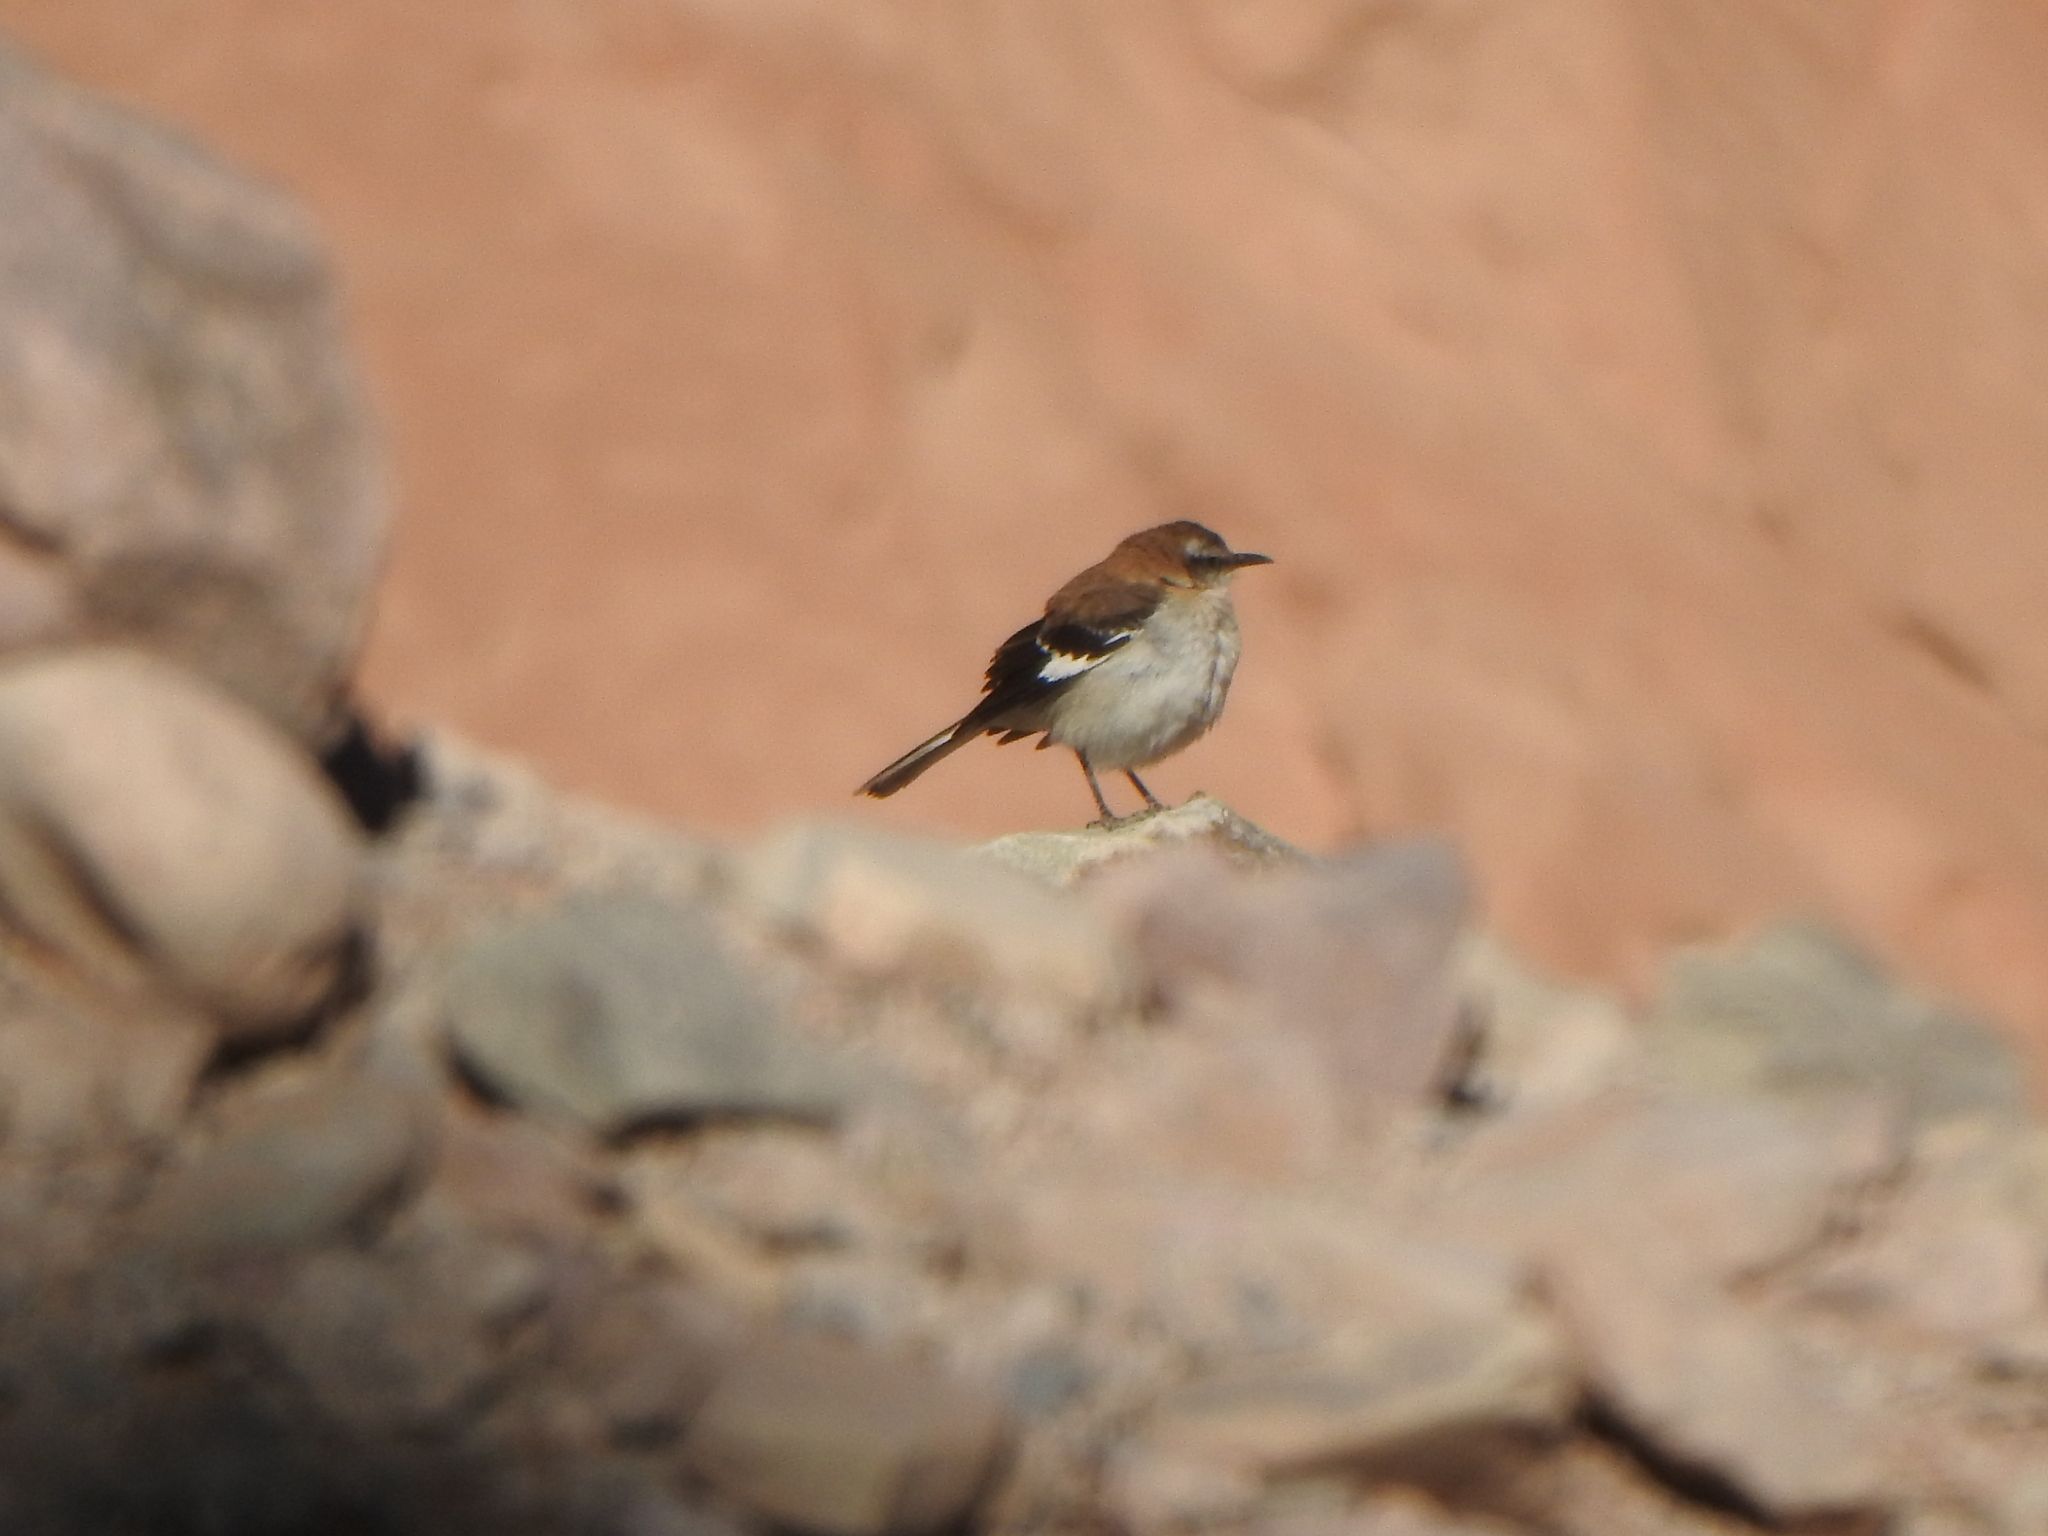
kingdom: Animalia
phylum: Chordata
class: Aves
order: Passeriformes
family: Mimidae
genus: Mimus
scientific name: Mimus dorsalis
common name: Brown-backed mockingbird
